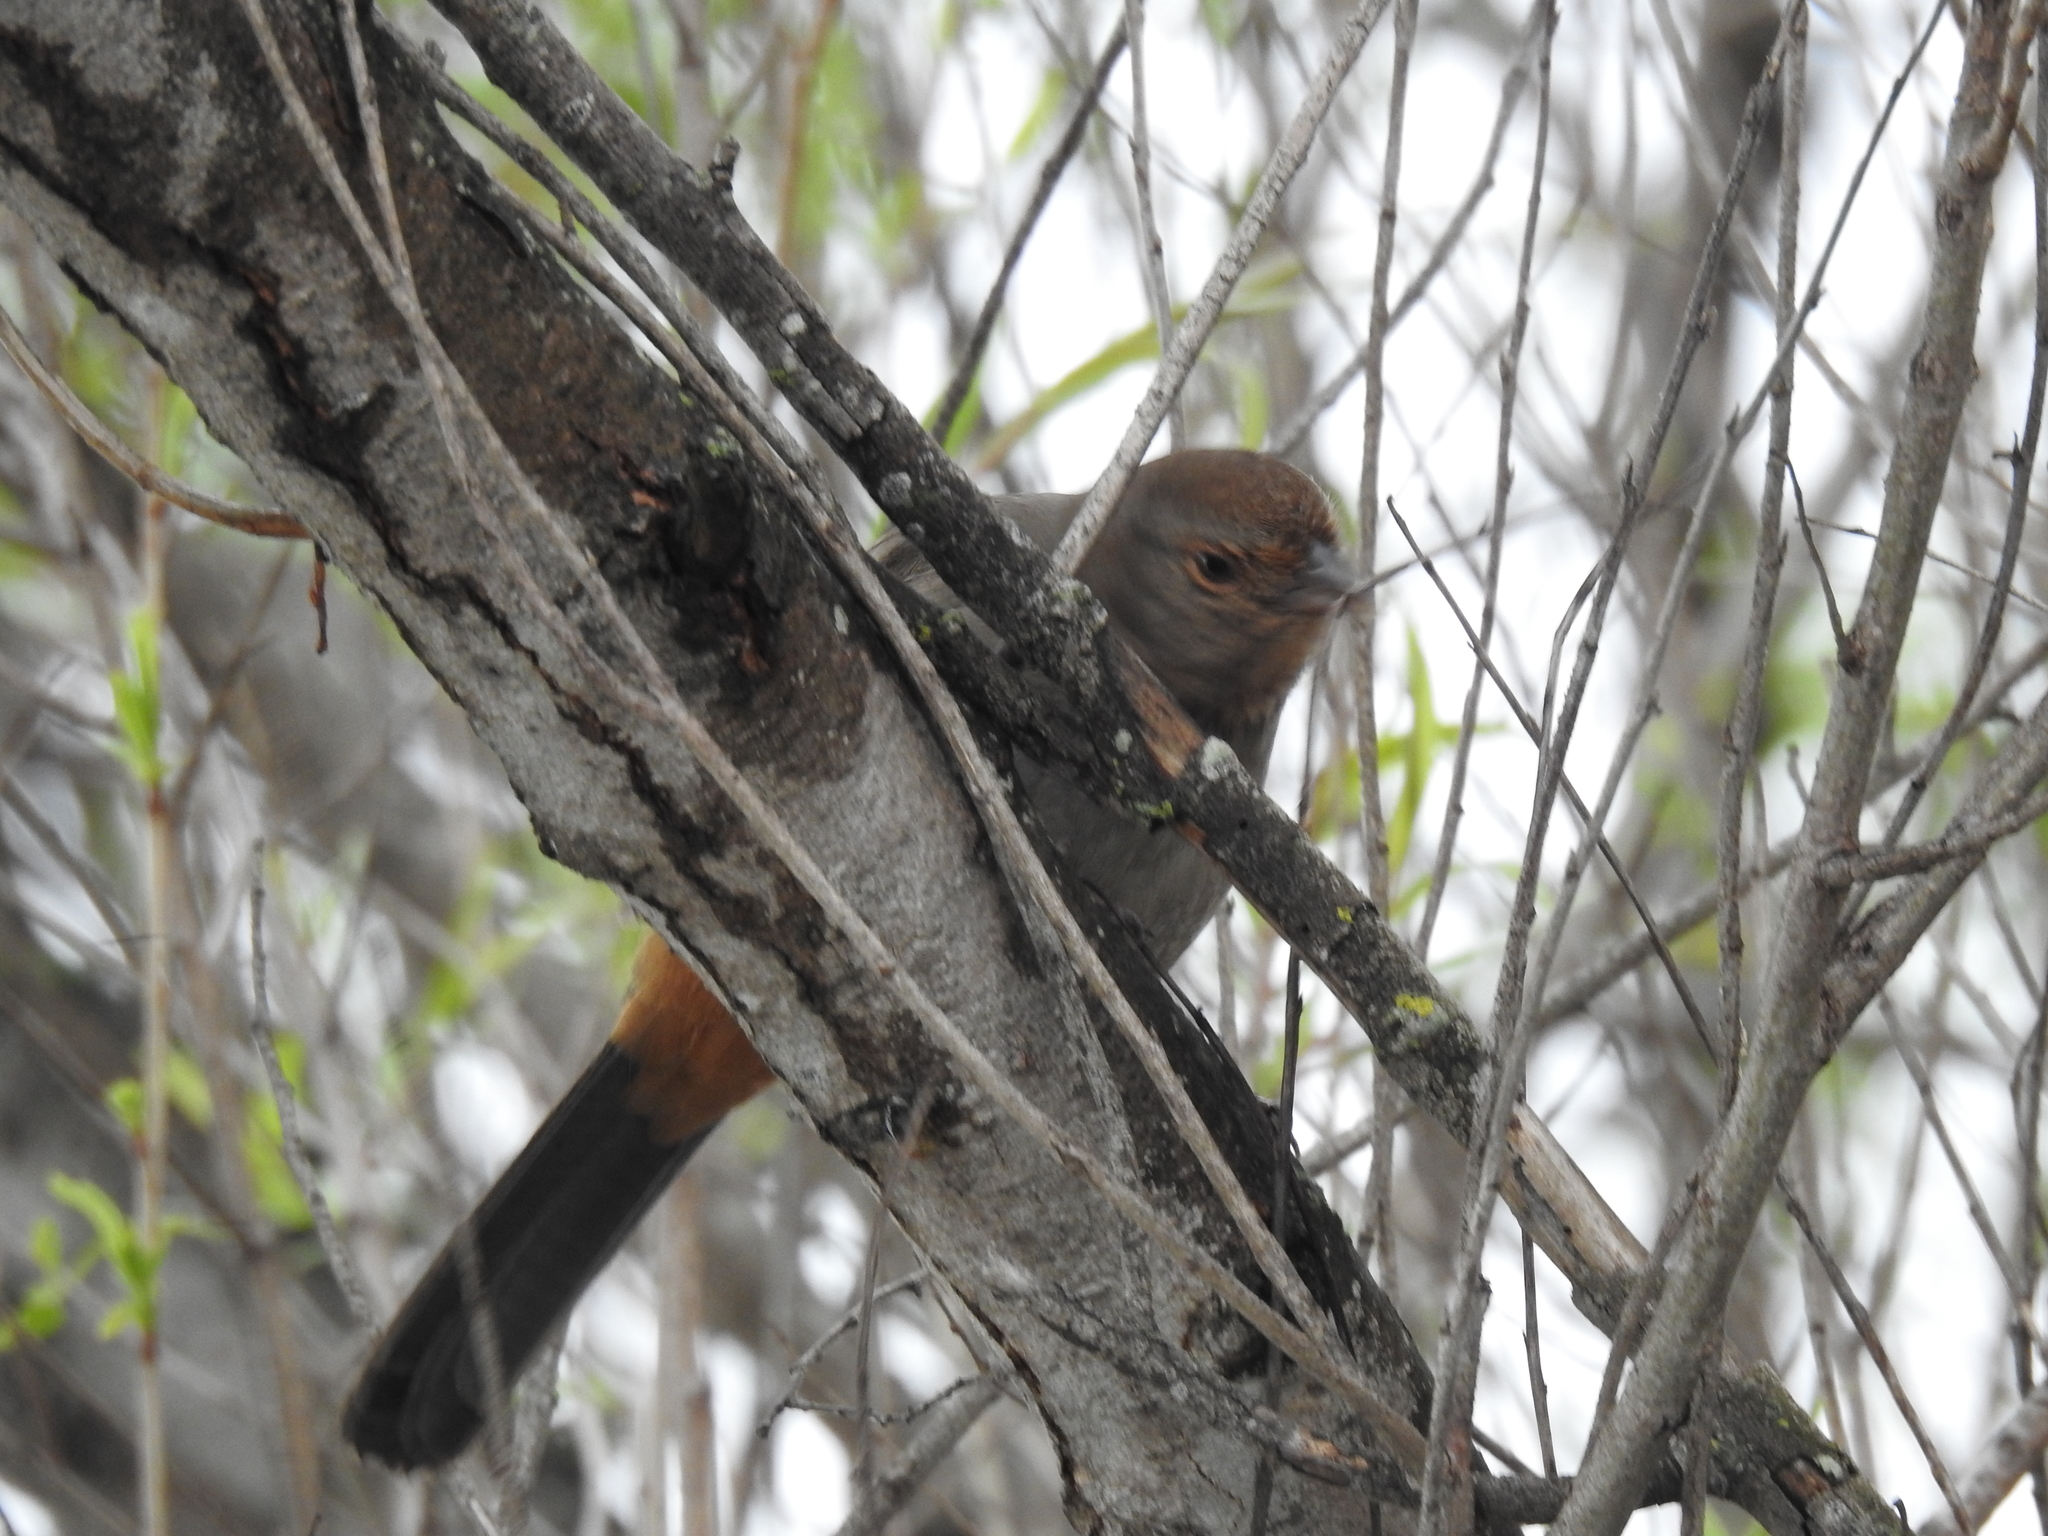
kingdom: Animalia
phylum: Chordata
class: Aves
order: Passeriformes
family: Passerellidae
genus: Melozone
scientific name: Melozone crissalis
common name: California towhee
